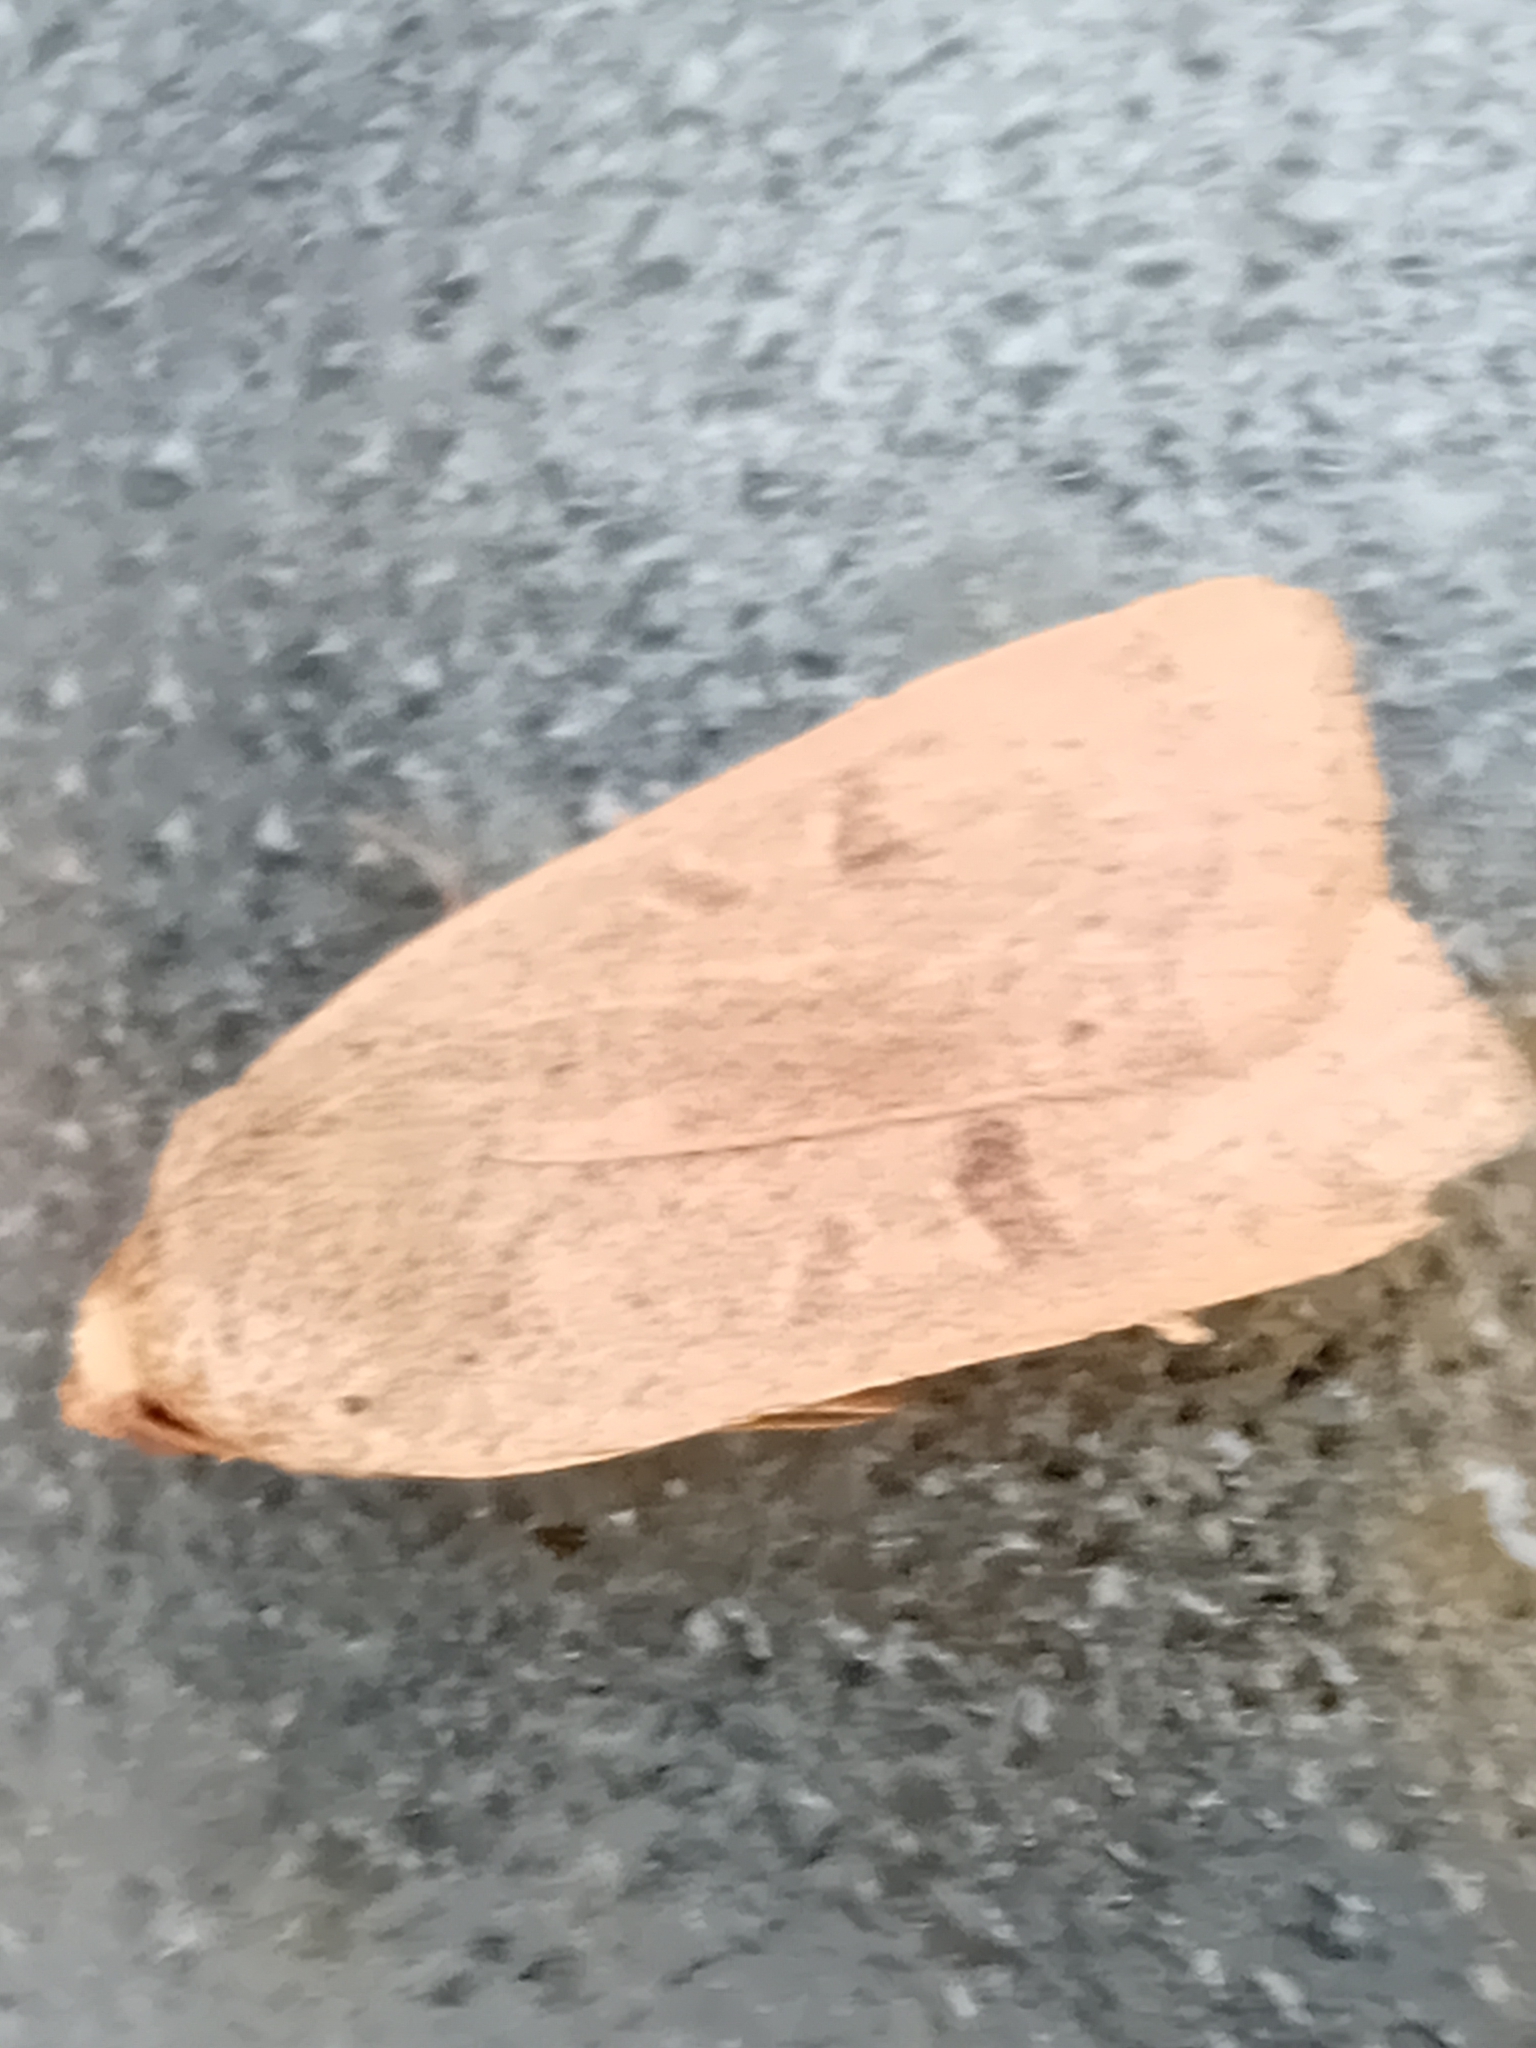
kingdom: Animalia
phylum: Arthropoda
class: Insecta
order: Lepidoptera
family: Noctuidae
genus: Noctua
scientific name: Noctua comes
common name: Lesser yellow underwing
